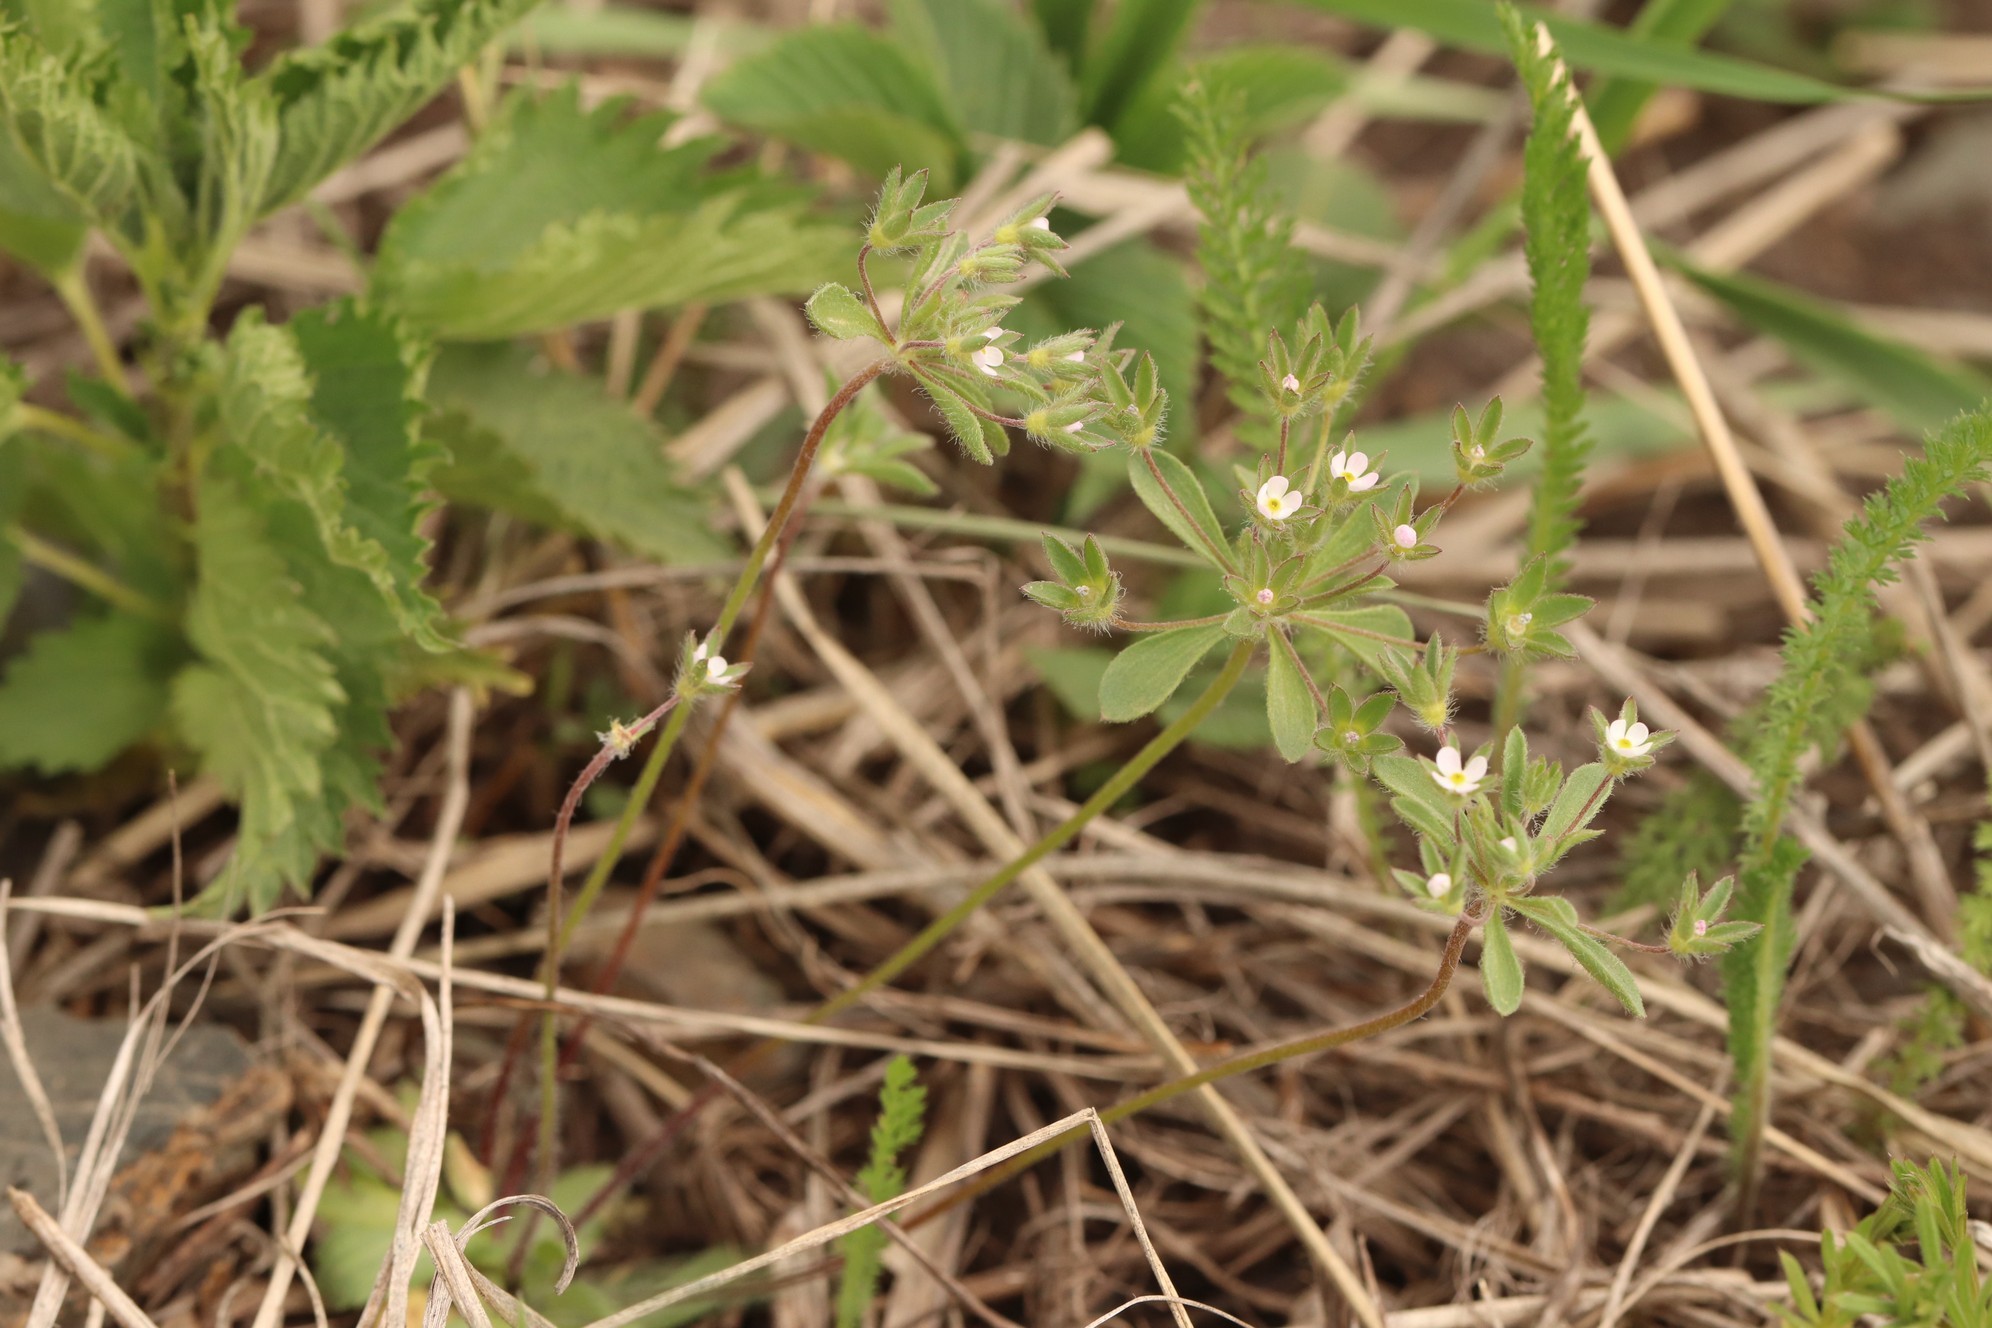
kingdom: Plantae
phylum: Tracheophyta
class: Magnoliopsida
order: Ericales
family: Primulaceae
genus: Androsace
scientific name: Androsace maxima
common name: Annual androsace
